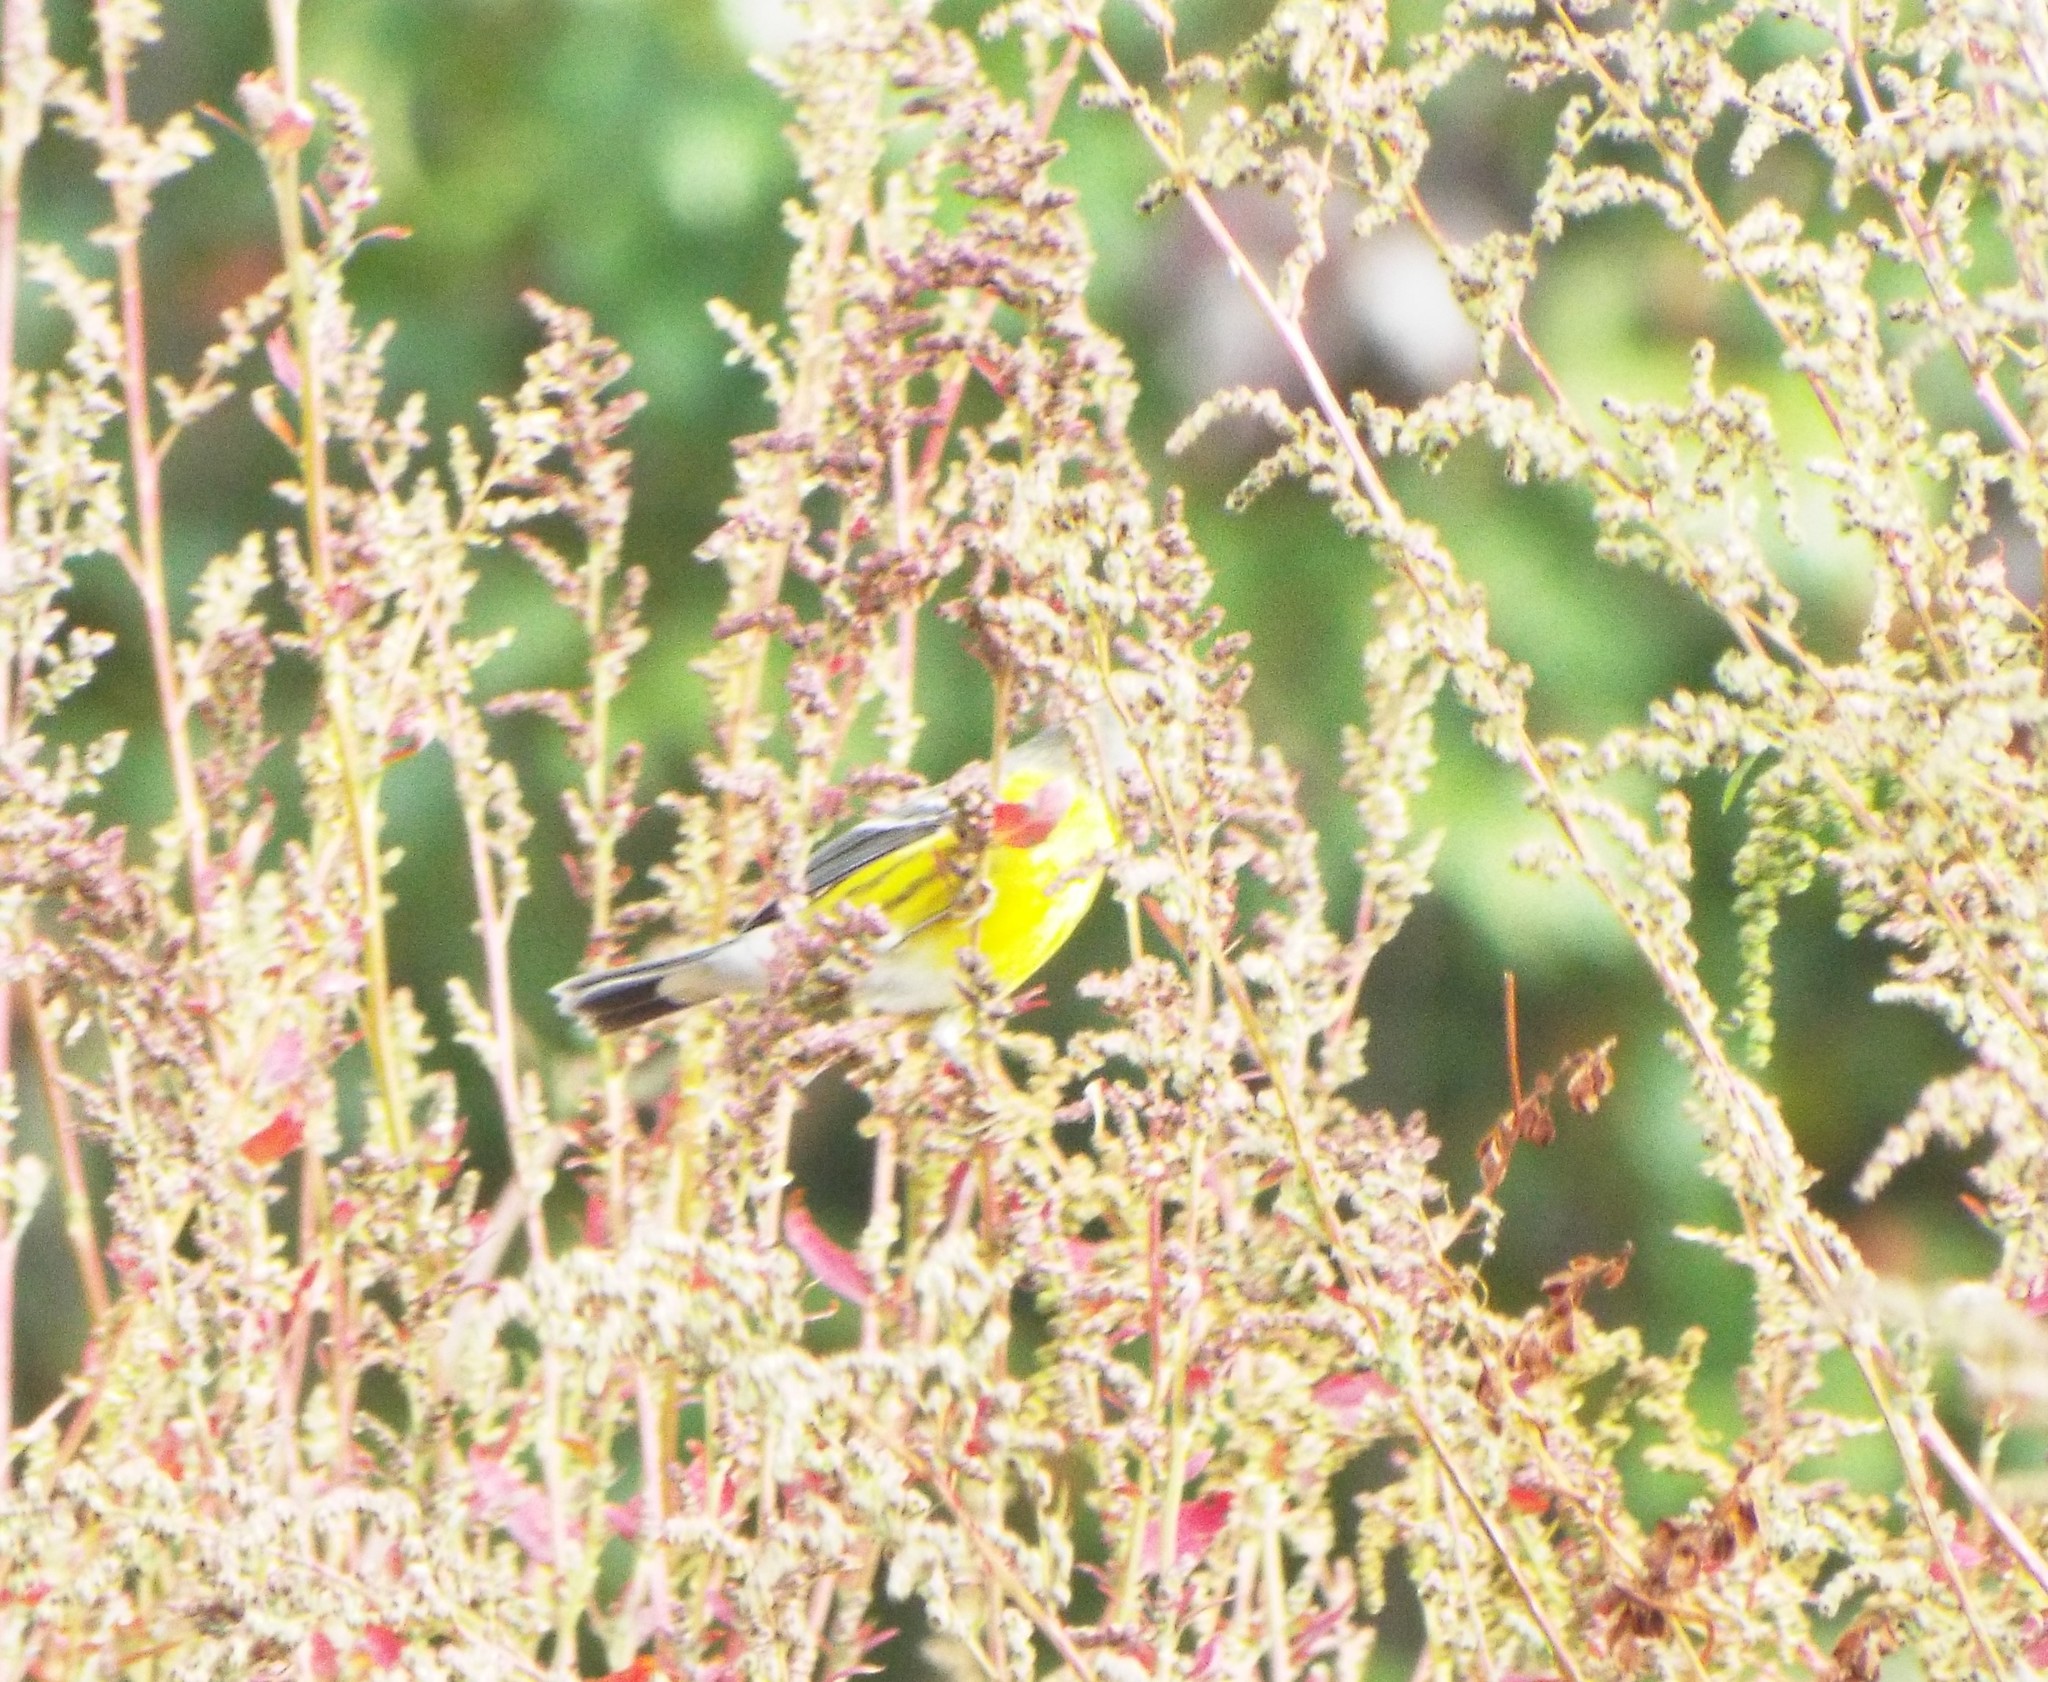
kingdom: Animalia
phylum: Chordata
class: Aves
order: Passeriformes
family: Parulidae
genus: Setophaga
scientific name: Setophaga magnolia
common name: Magnolia warbler
